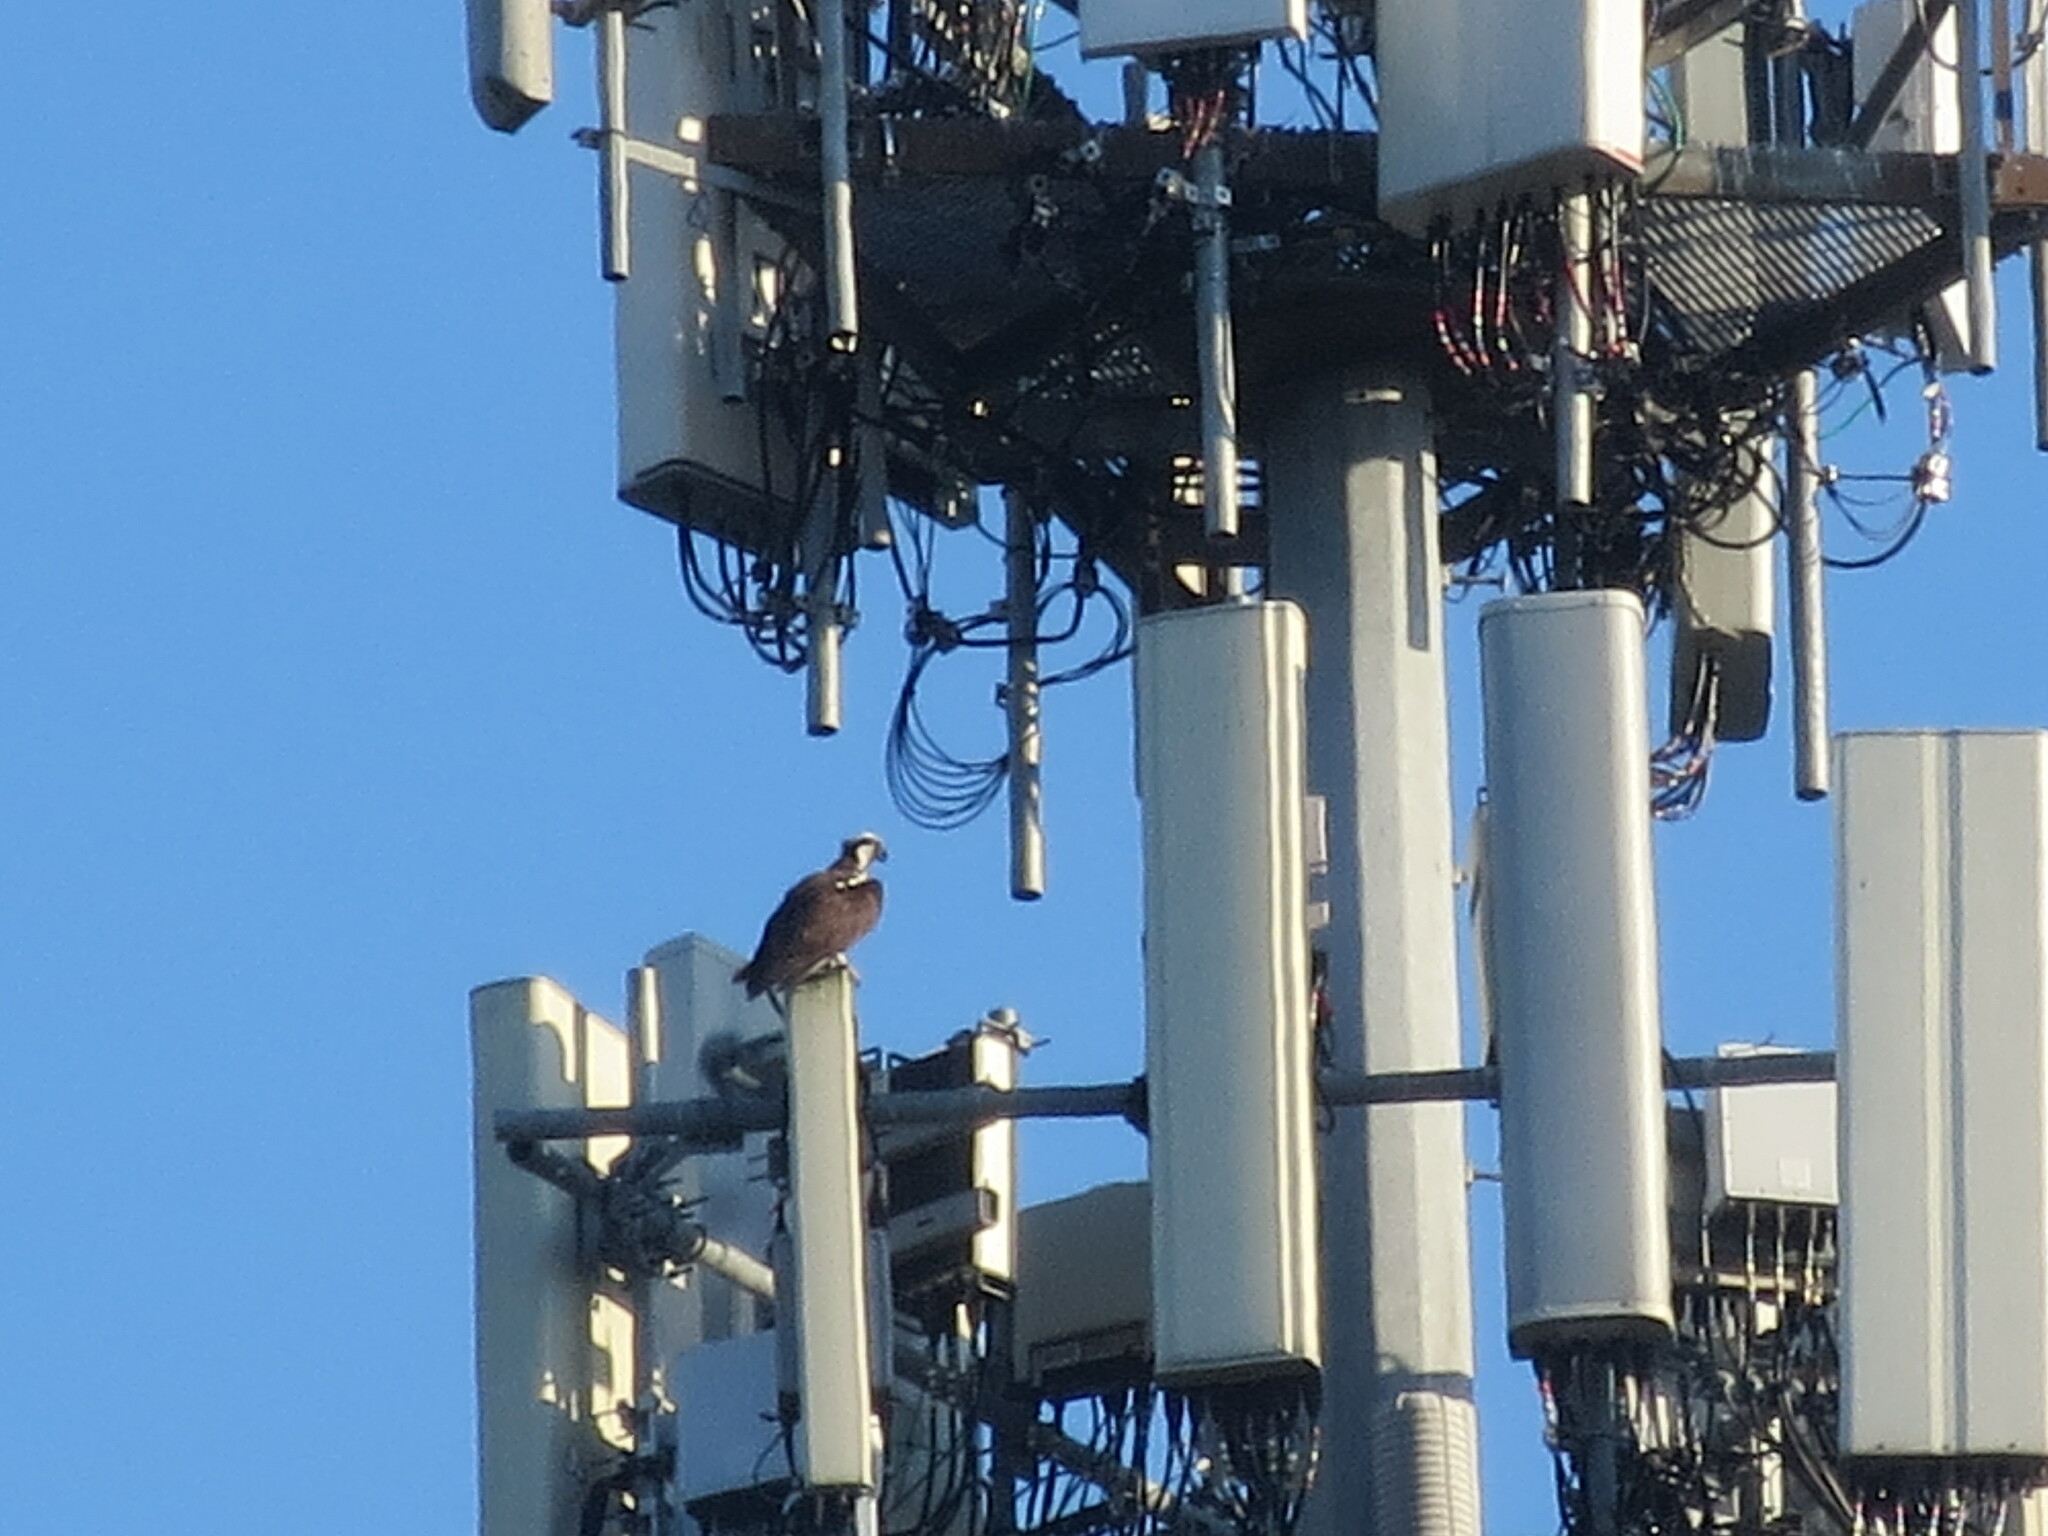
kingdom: Animalia
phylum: Chordata
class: Aves
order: Accipitriformes
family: Pandionidae
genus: Pandion
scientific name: Pandion haliaetus
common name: Osprey
